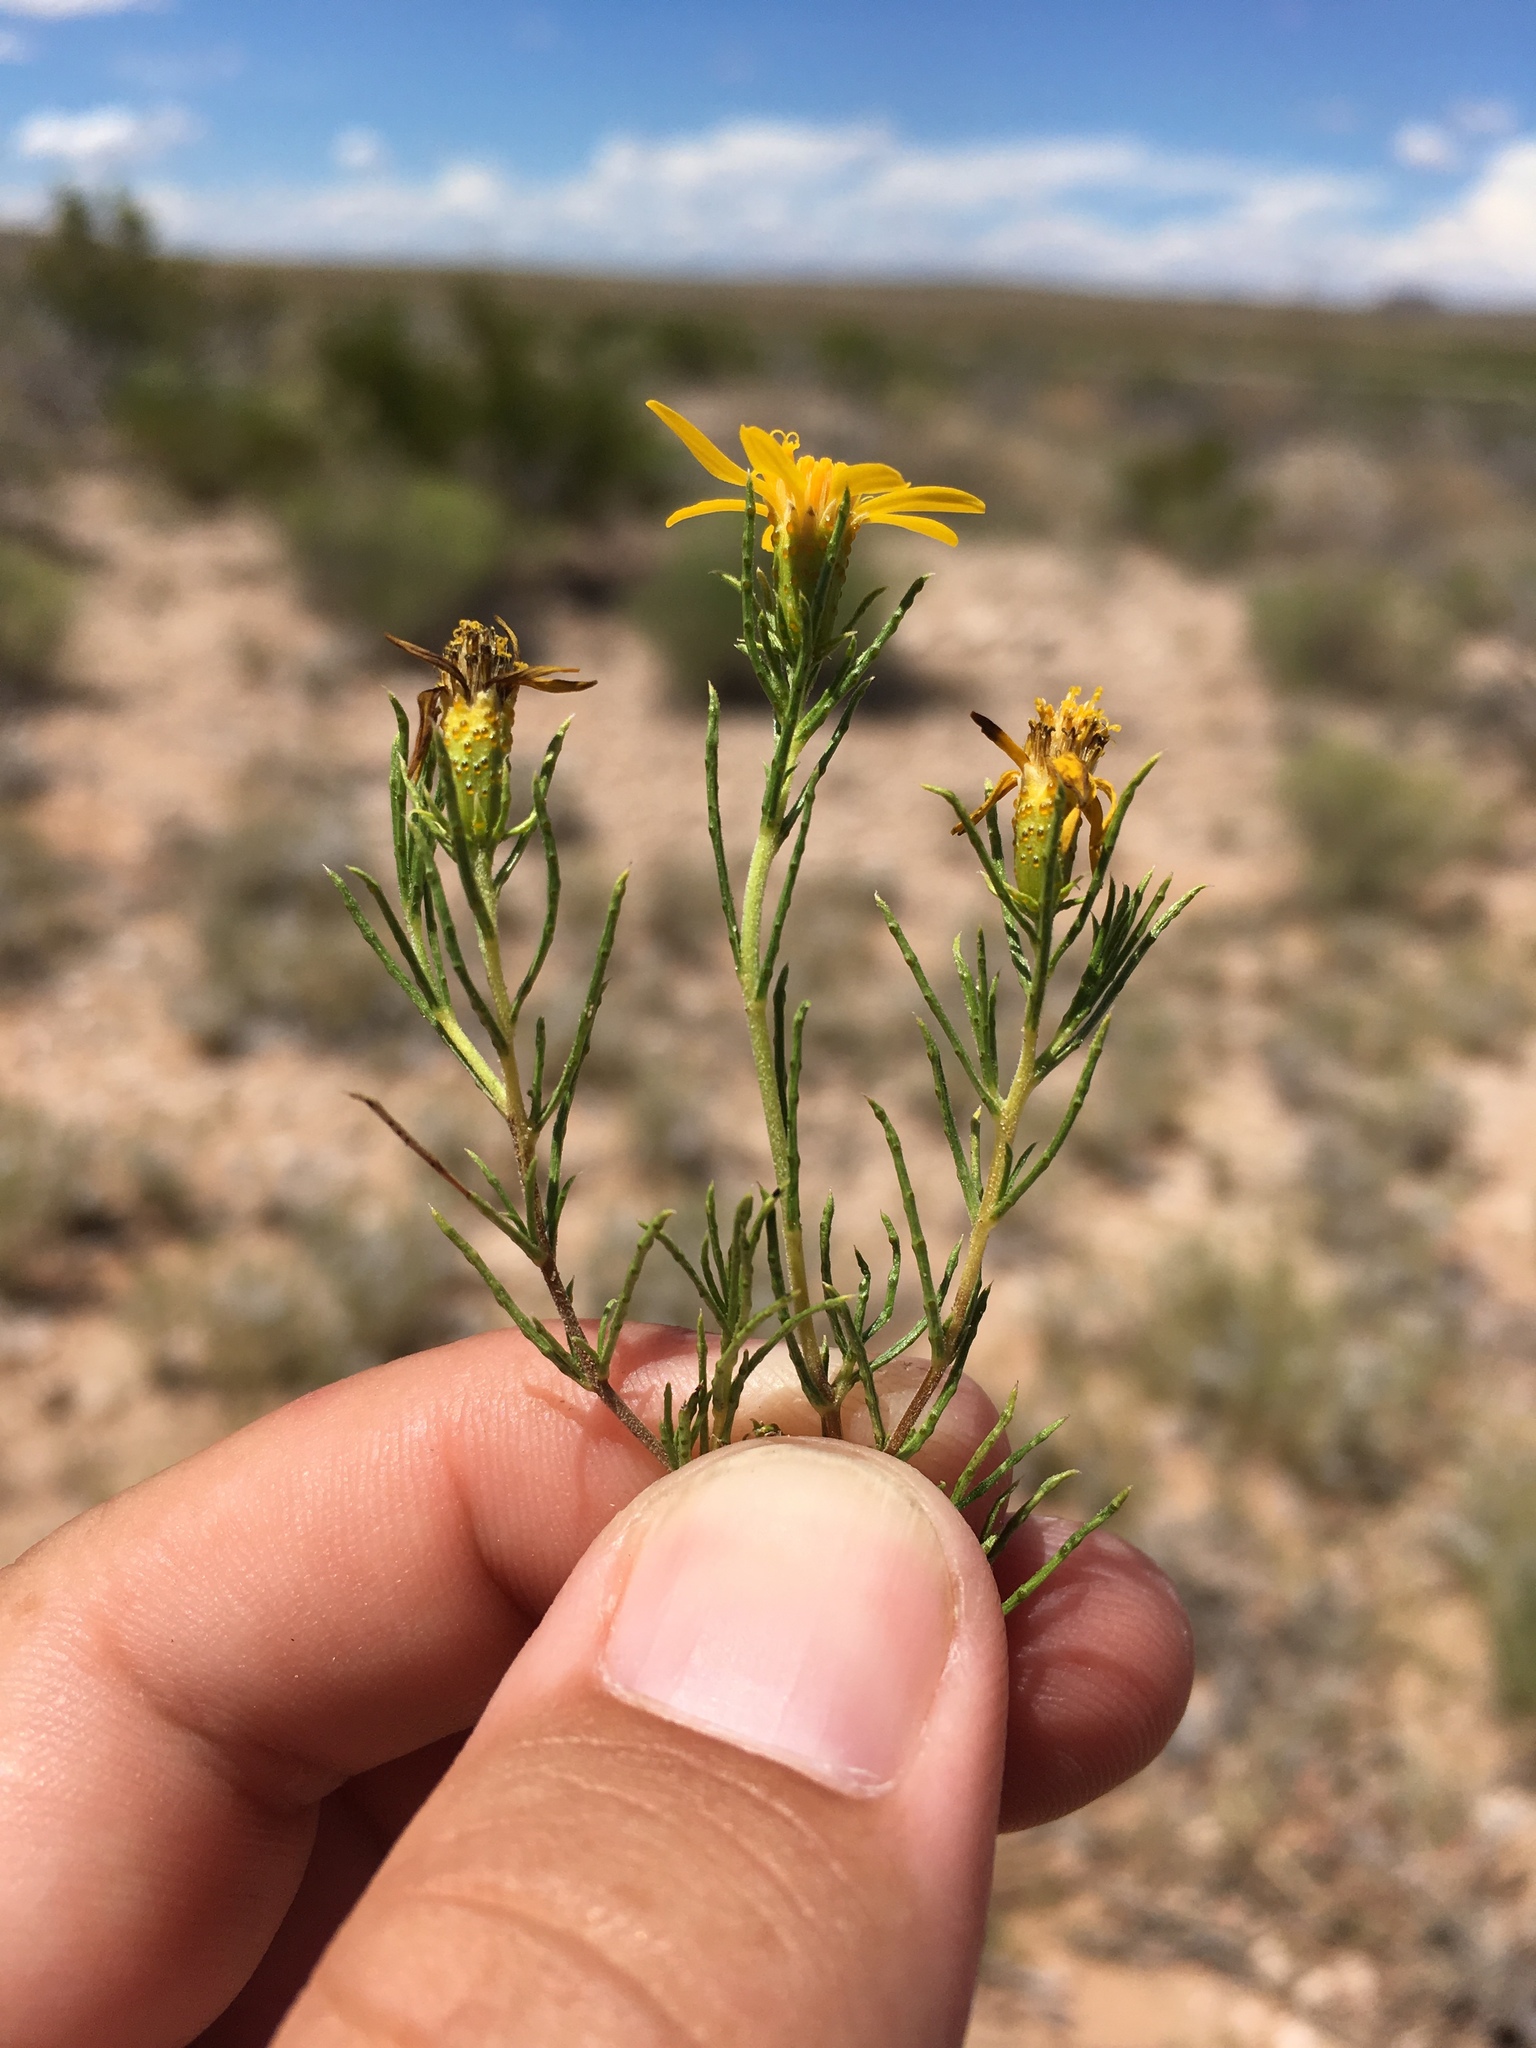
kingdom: Plantae
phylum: Tracheophyta
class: Magnoliopsida
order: Asterales
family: Asteraceae
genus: Thymophylla
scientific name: Thymophylla acerosa
